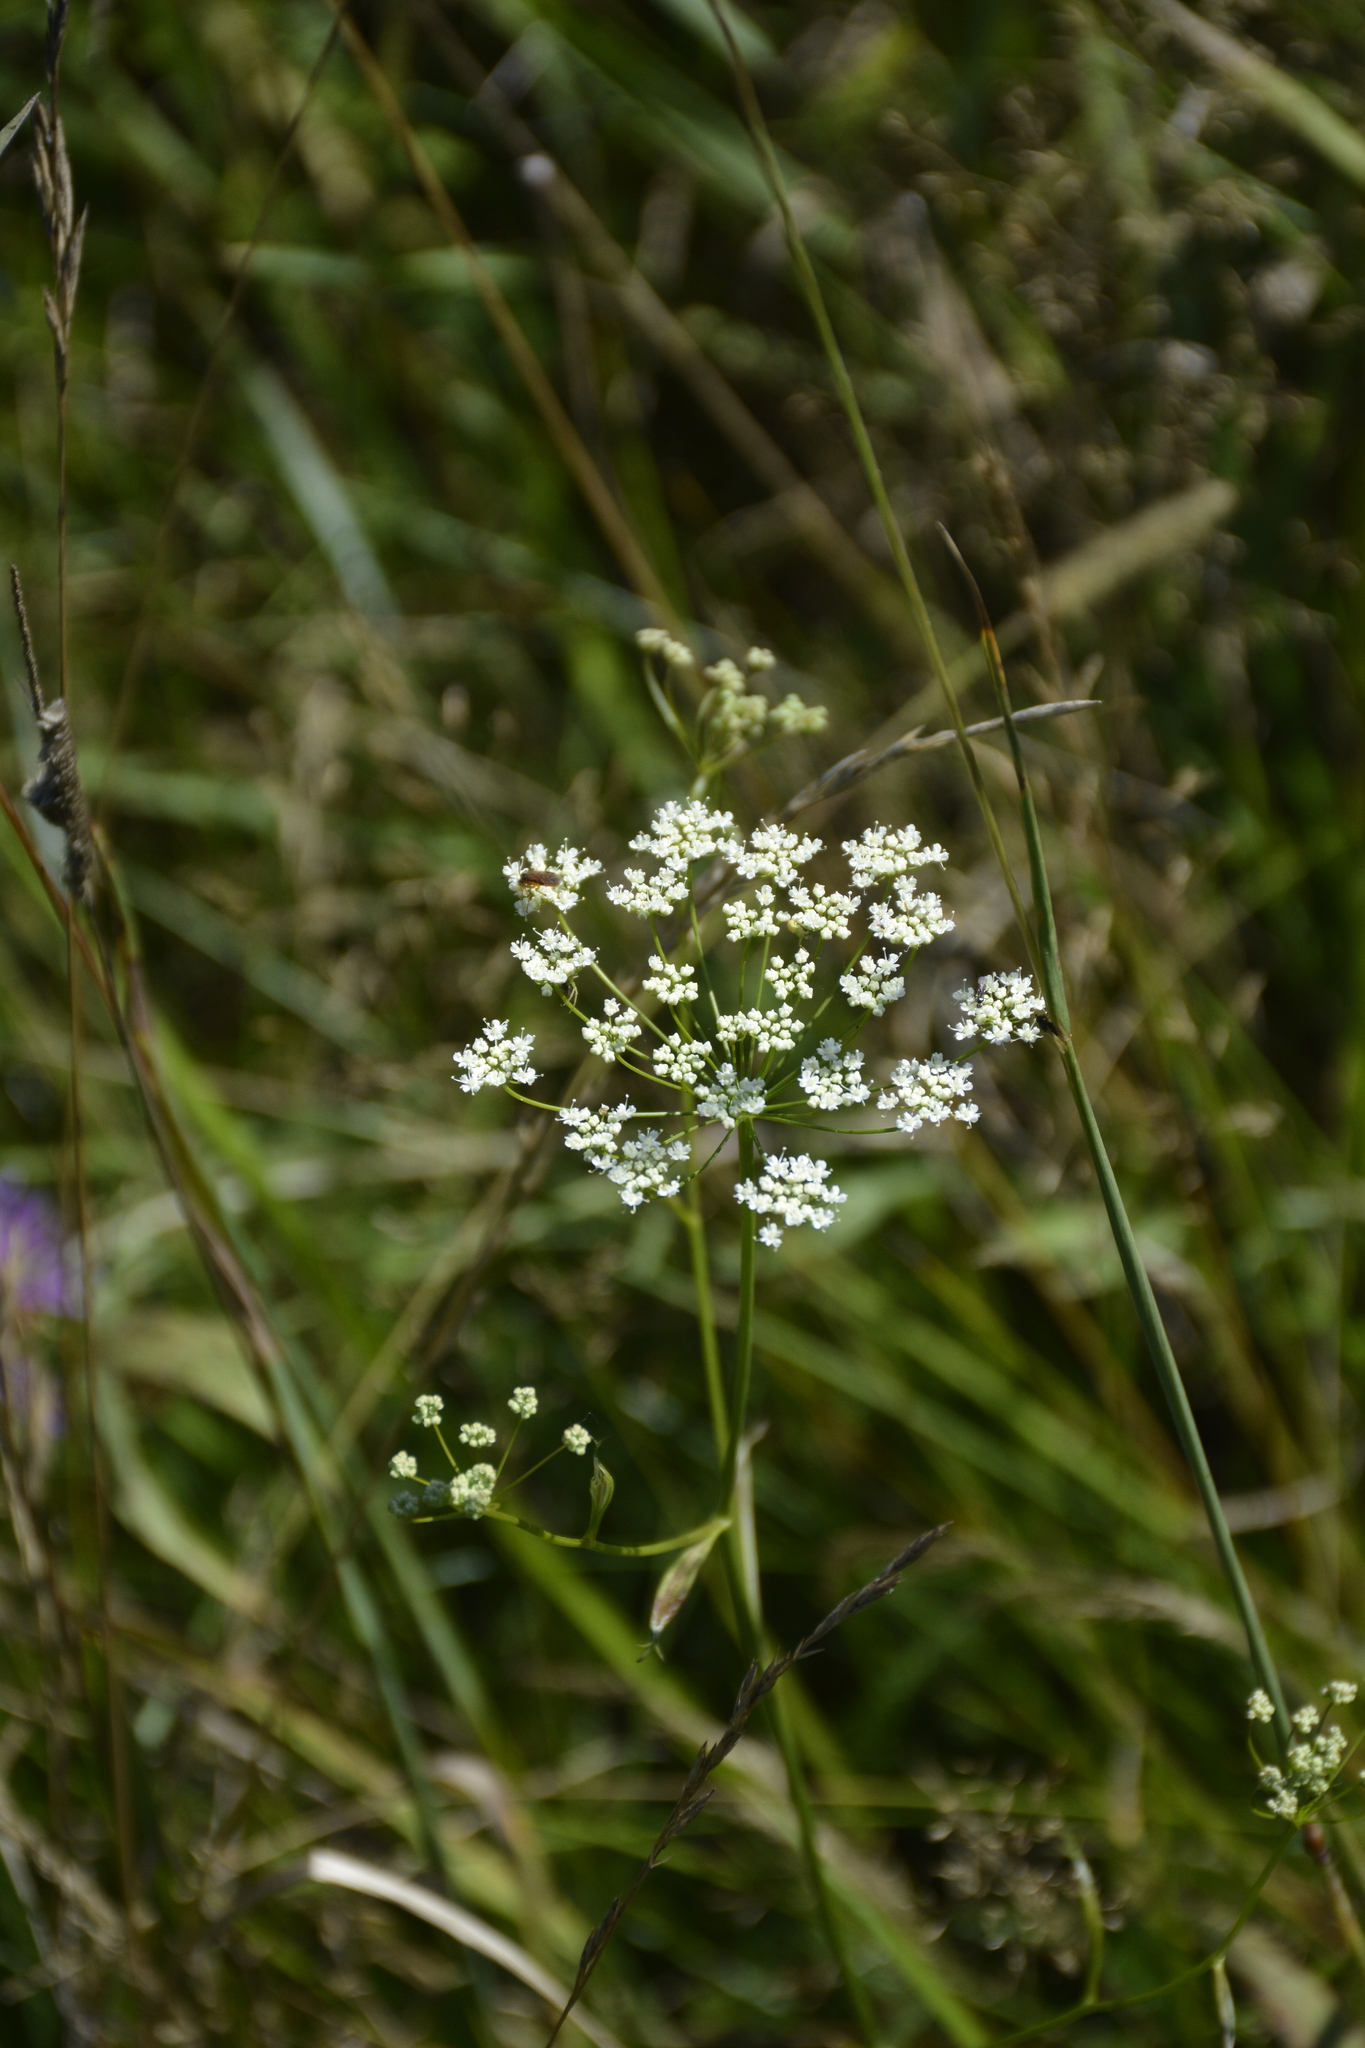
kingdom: Plantae
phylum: Tracheophyta
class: Magnoliopsida
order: Apiales
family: Apiaceae
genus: Pimpinella
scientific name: Pimpinella saxifraga
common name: Burnet-saxifrage
